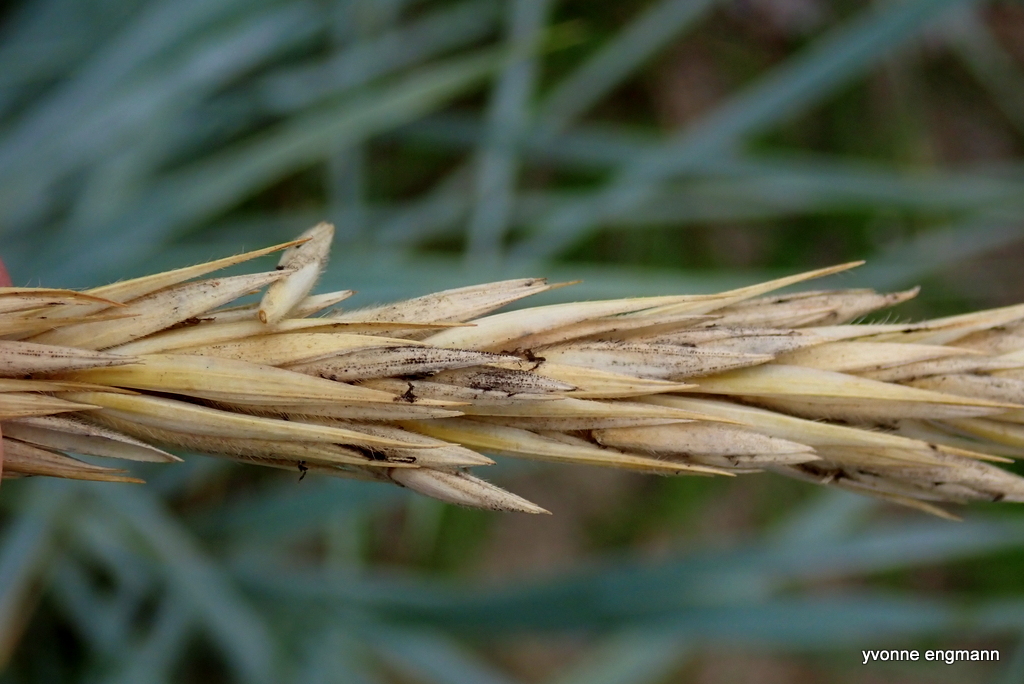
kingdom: Fungi
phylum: Ascomycota
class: Sordariomycetes
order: Hypocreales
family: Clavicipitaceae
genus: Claviceps
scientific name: Claviceps purpurea
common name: Rye ergot
